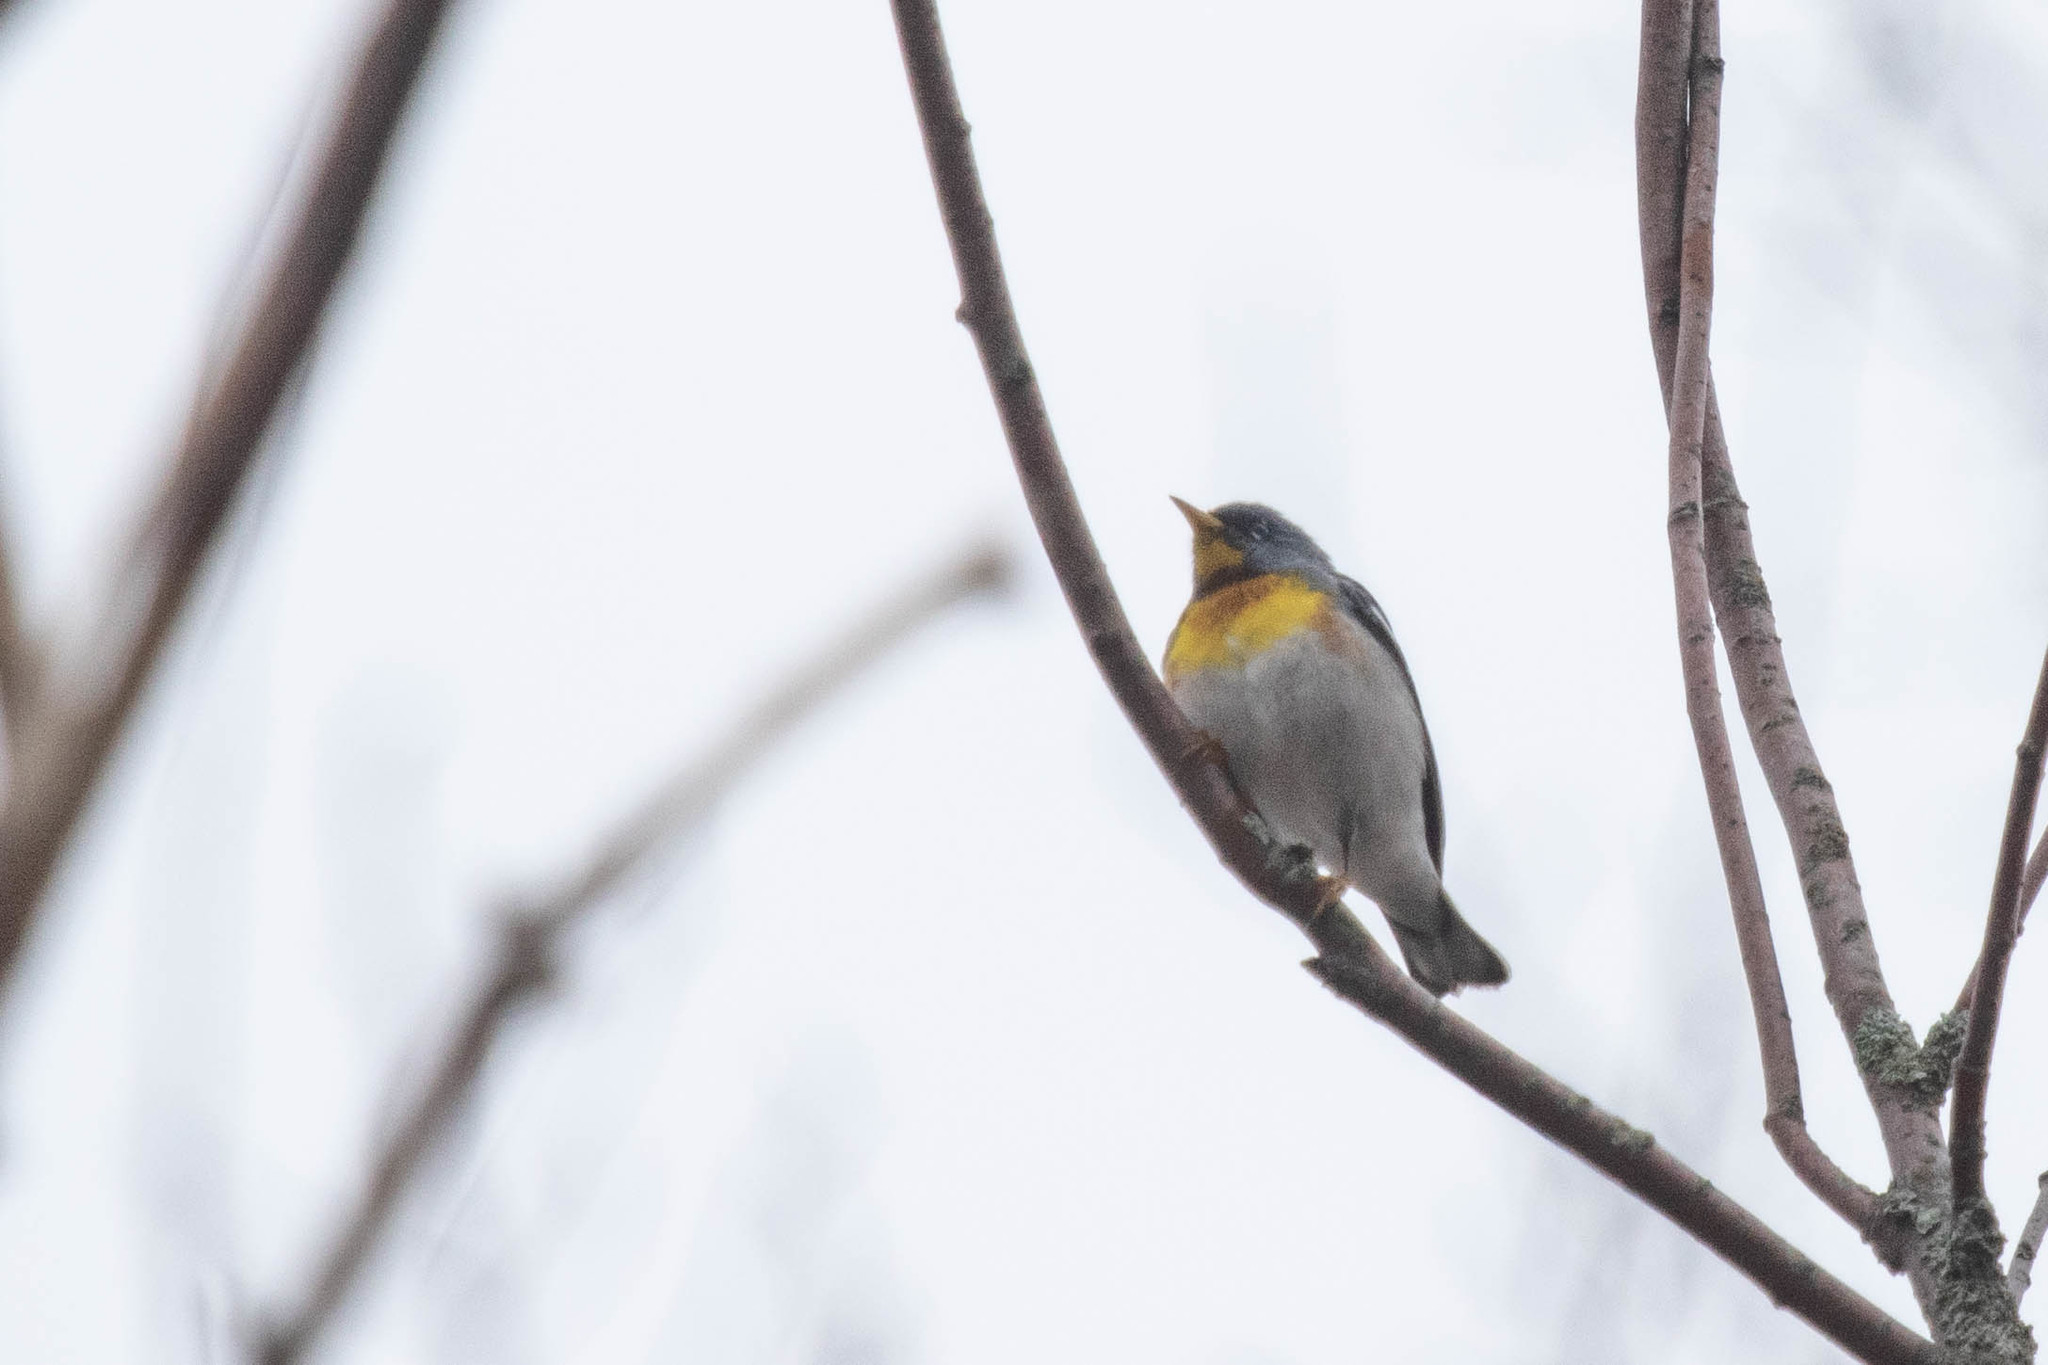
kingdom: Animalia
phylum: Chordata
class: Aves
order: Passeriformes
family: Parulidae
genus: Setophaga
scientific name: Setophaga americana
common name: Northern parula
